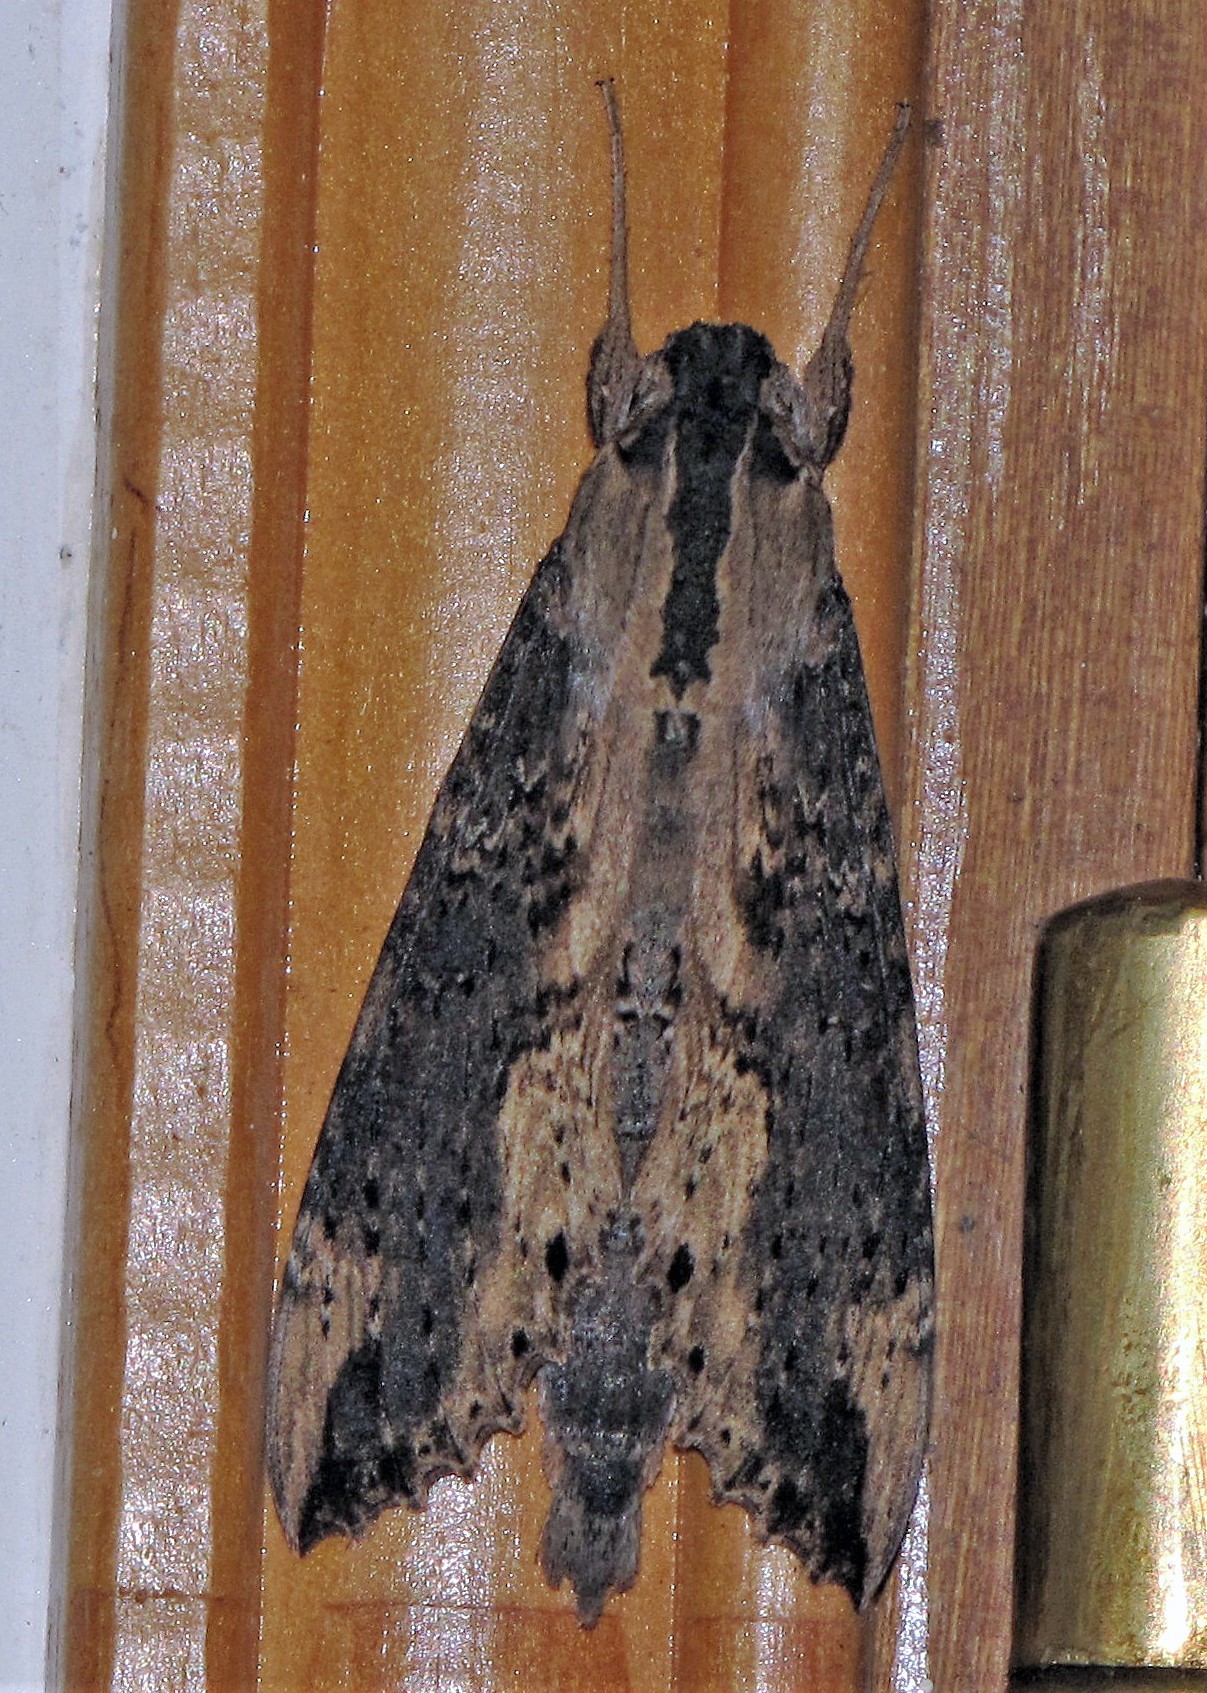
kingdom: Animalia
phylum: Arthropoda
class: Insecta
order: Lepidoptera
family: Sphingidae
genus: Erinnyis
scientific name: Erinnyis crameri
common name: Cramer's sphinx
